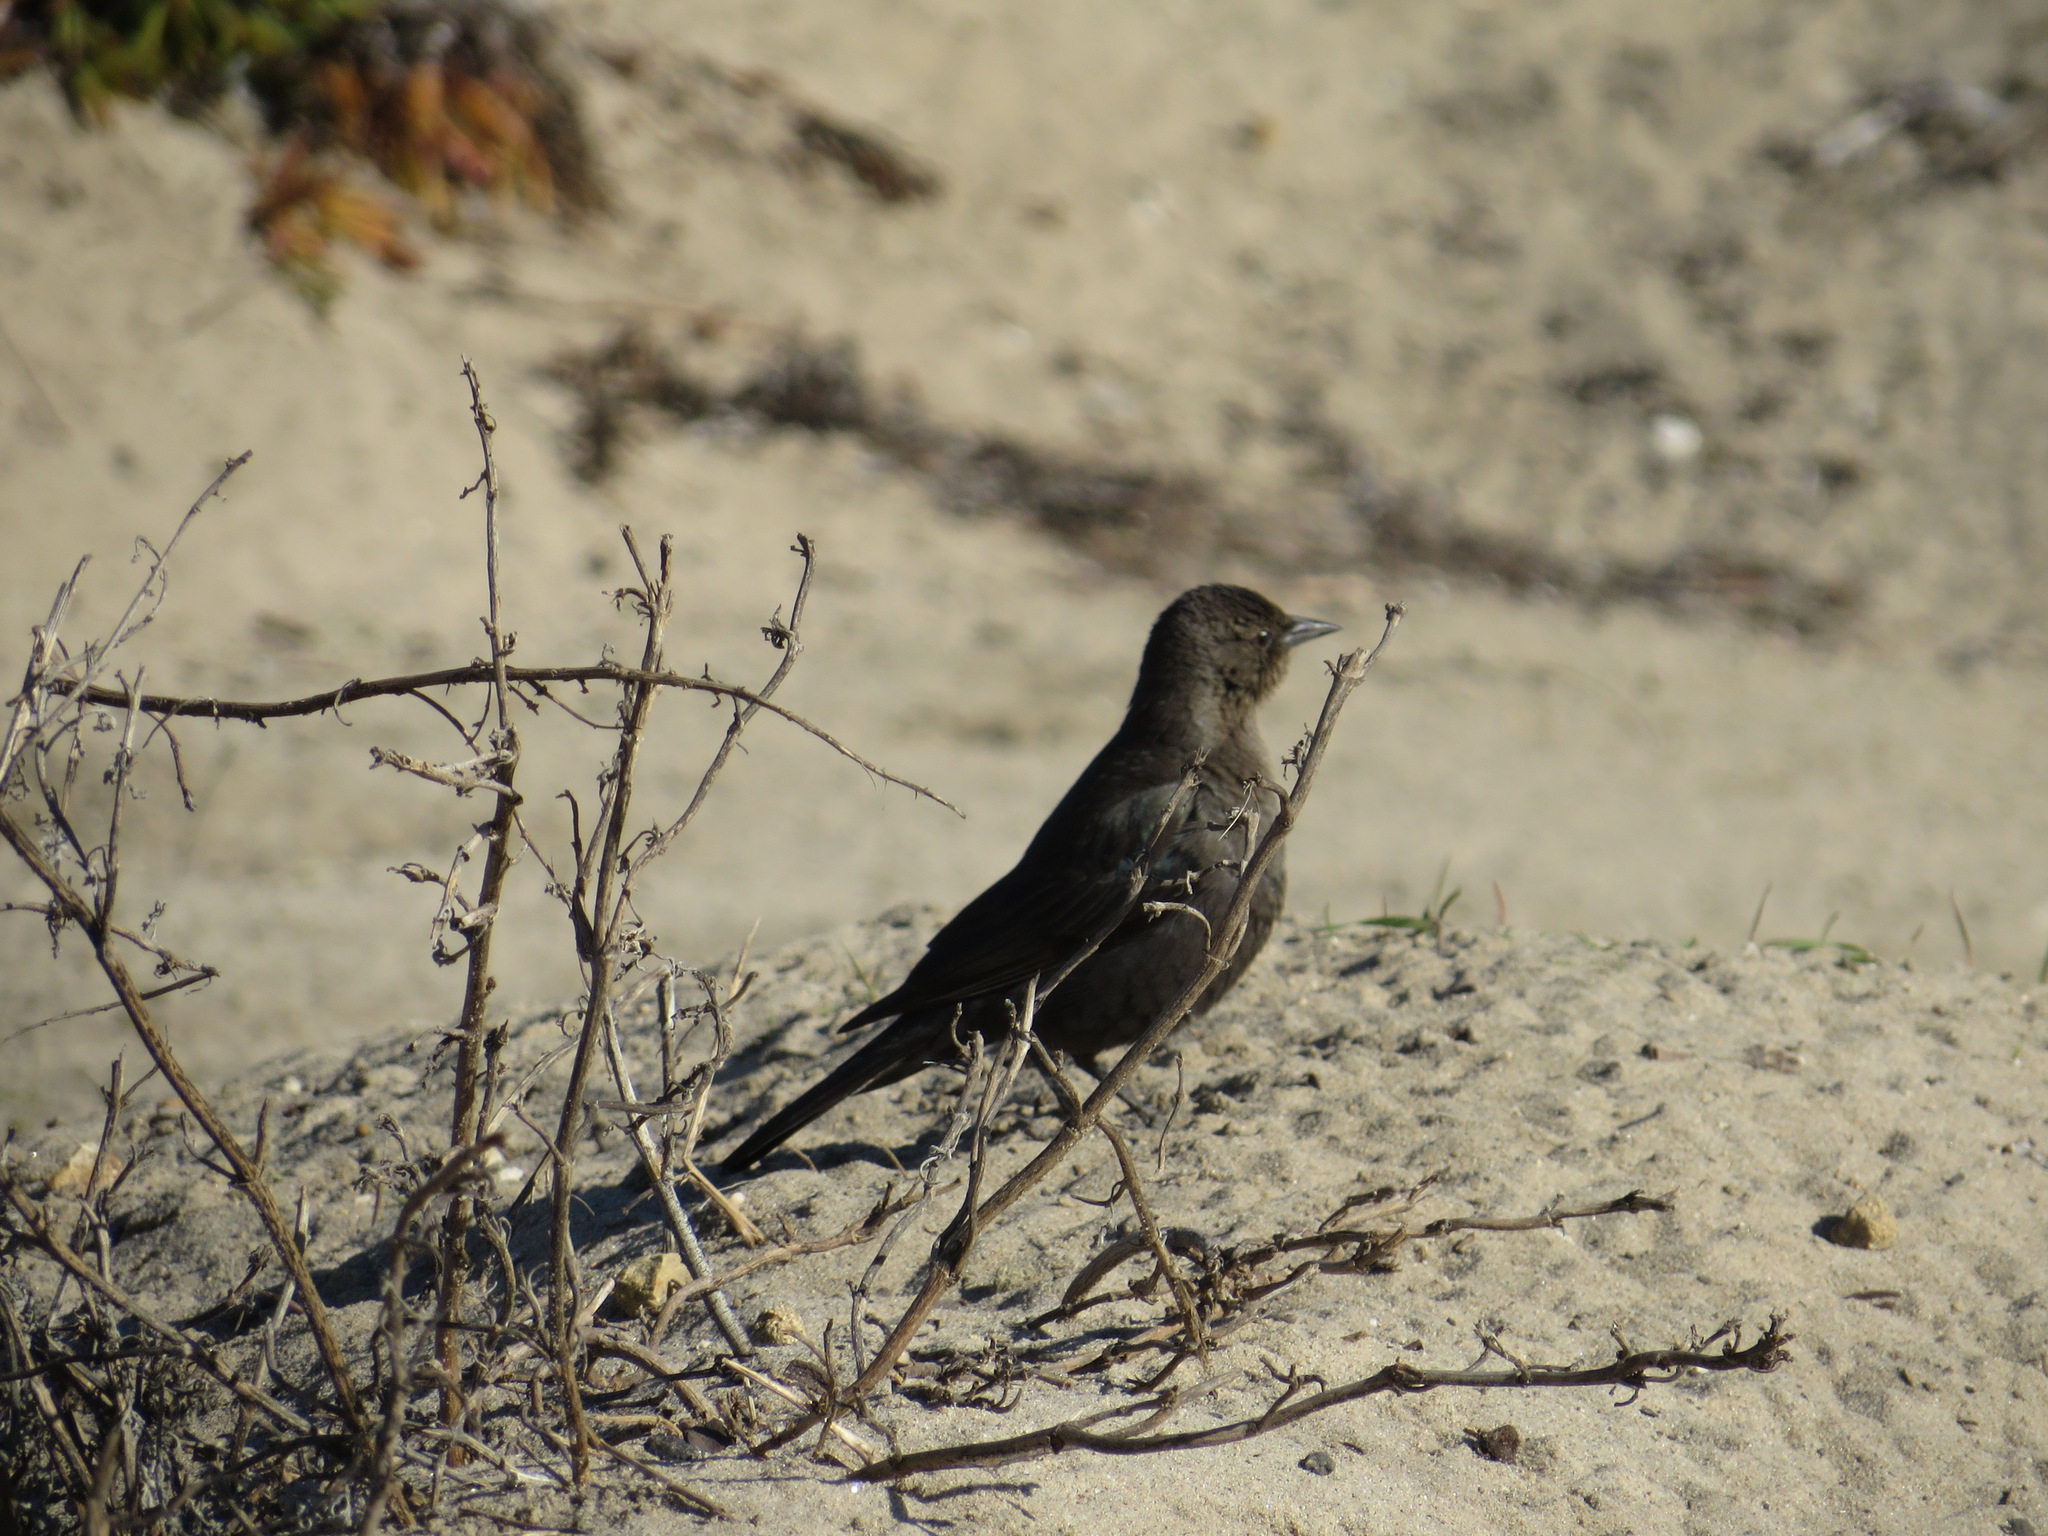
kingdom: Animalia
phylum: Chordata
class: Aves
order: Passeriformes
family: Icteridae
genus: Euphagus
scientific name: Euphagus cyanocephalus
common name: Brewer's blackbird
